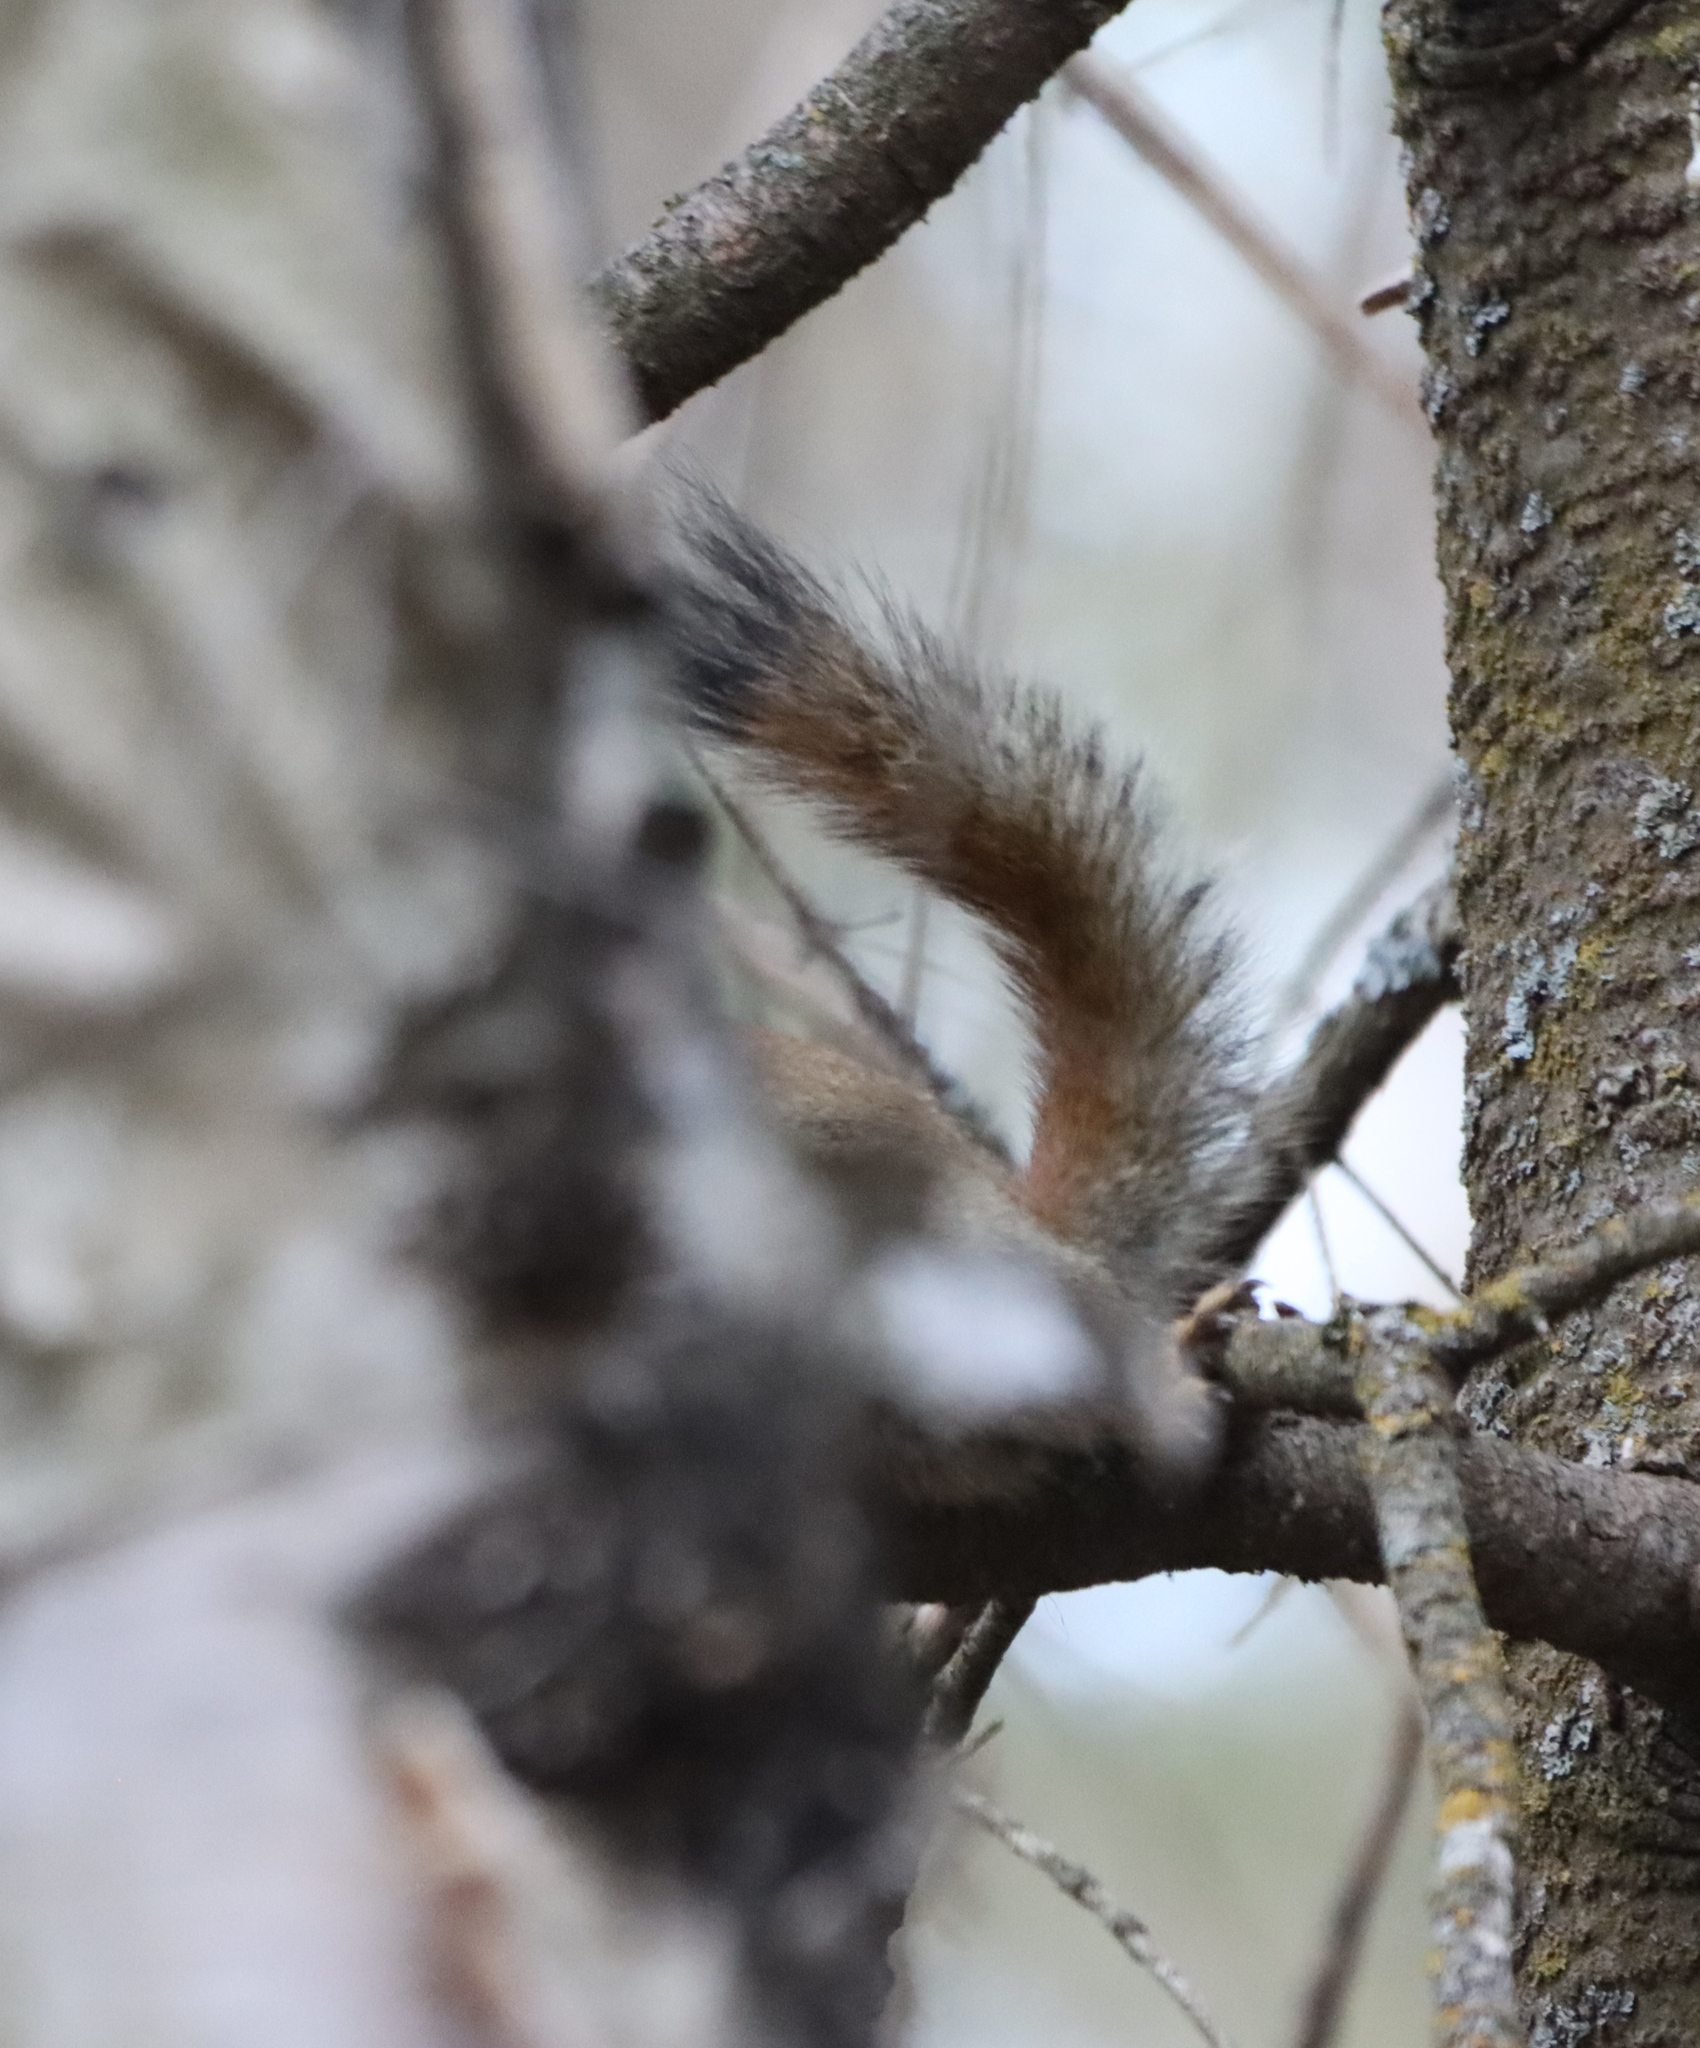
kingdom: Animalia
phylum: Chordata
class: Mammalia
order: Rodentia
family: Sciuridae
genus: Tamiasciurus
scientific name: Tamiasciurus hudsonicus
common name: Red squirrel
